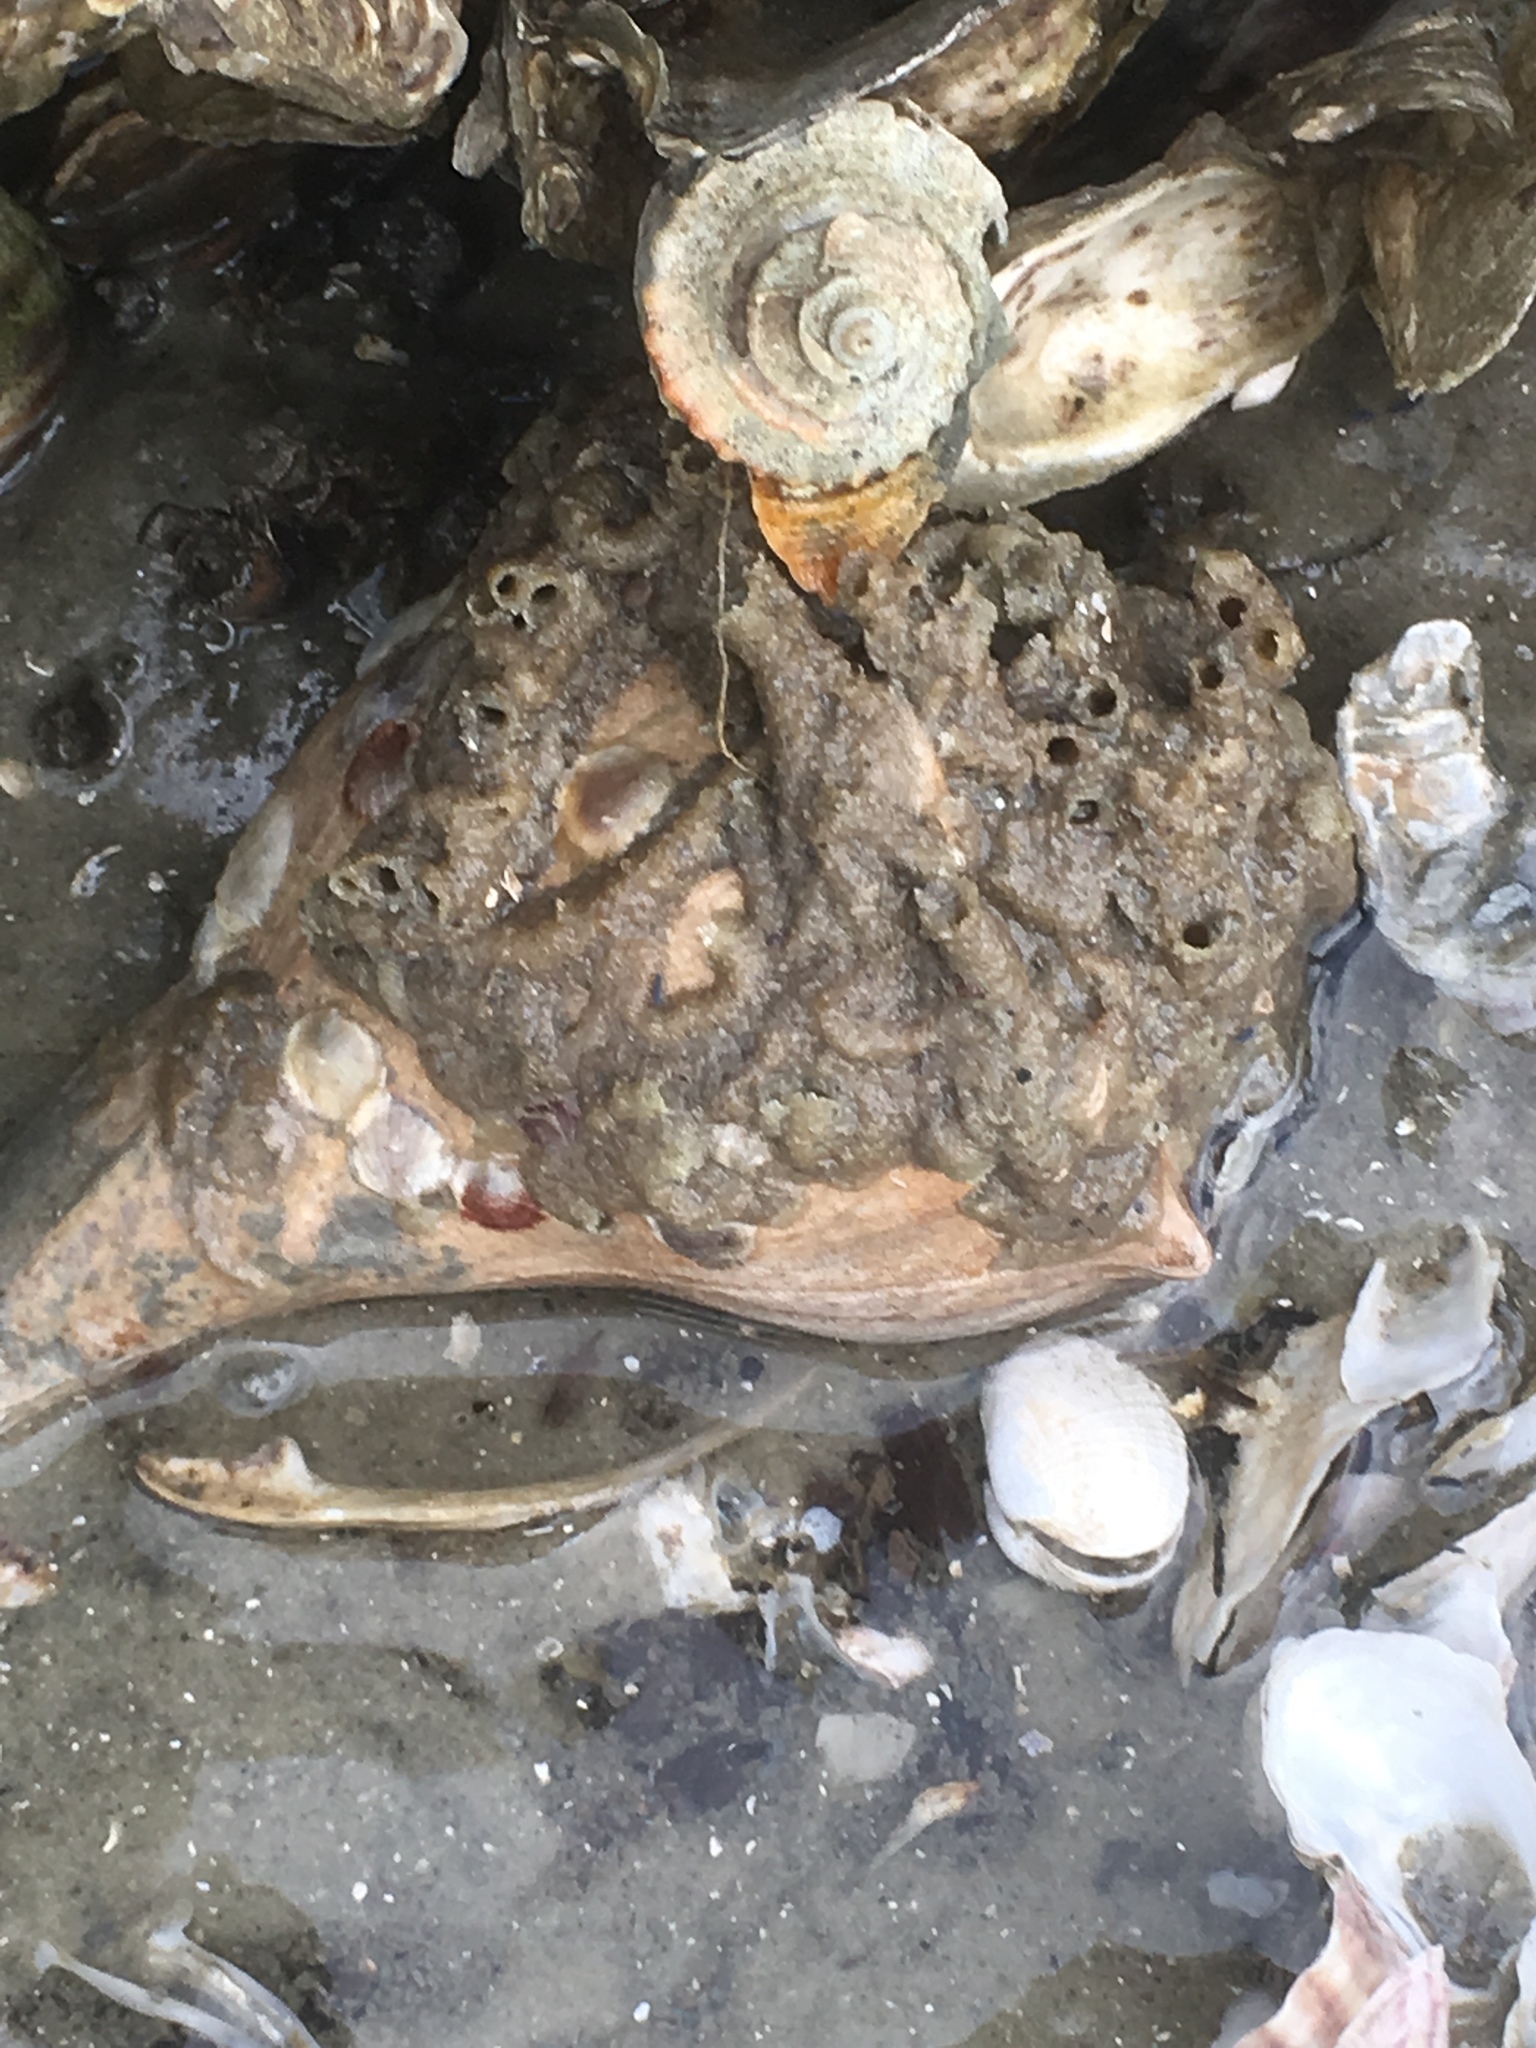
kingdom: Animalia
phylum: Annelida
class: Polychaeta
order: Sabellida
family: Sabellariidae
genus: Phragmatopoma
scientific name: Phragmatopoma caudata
